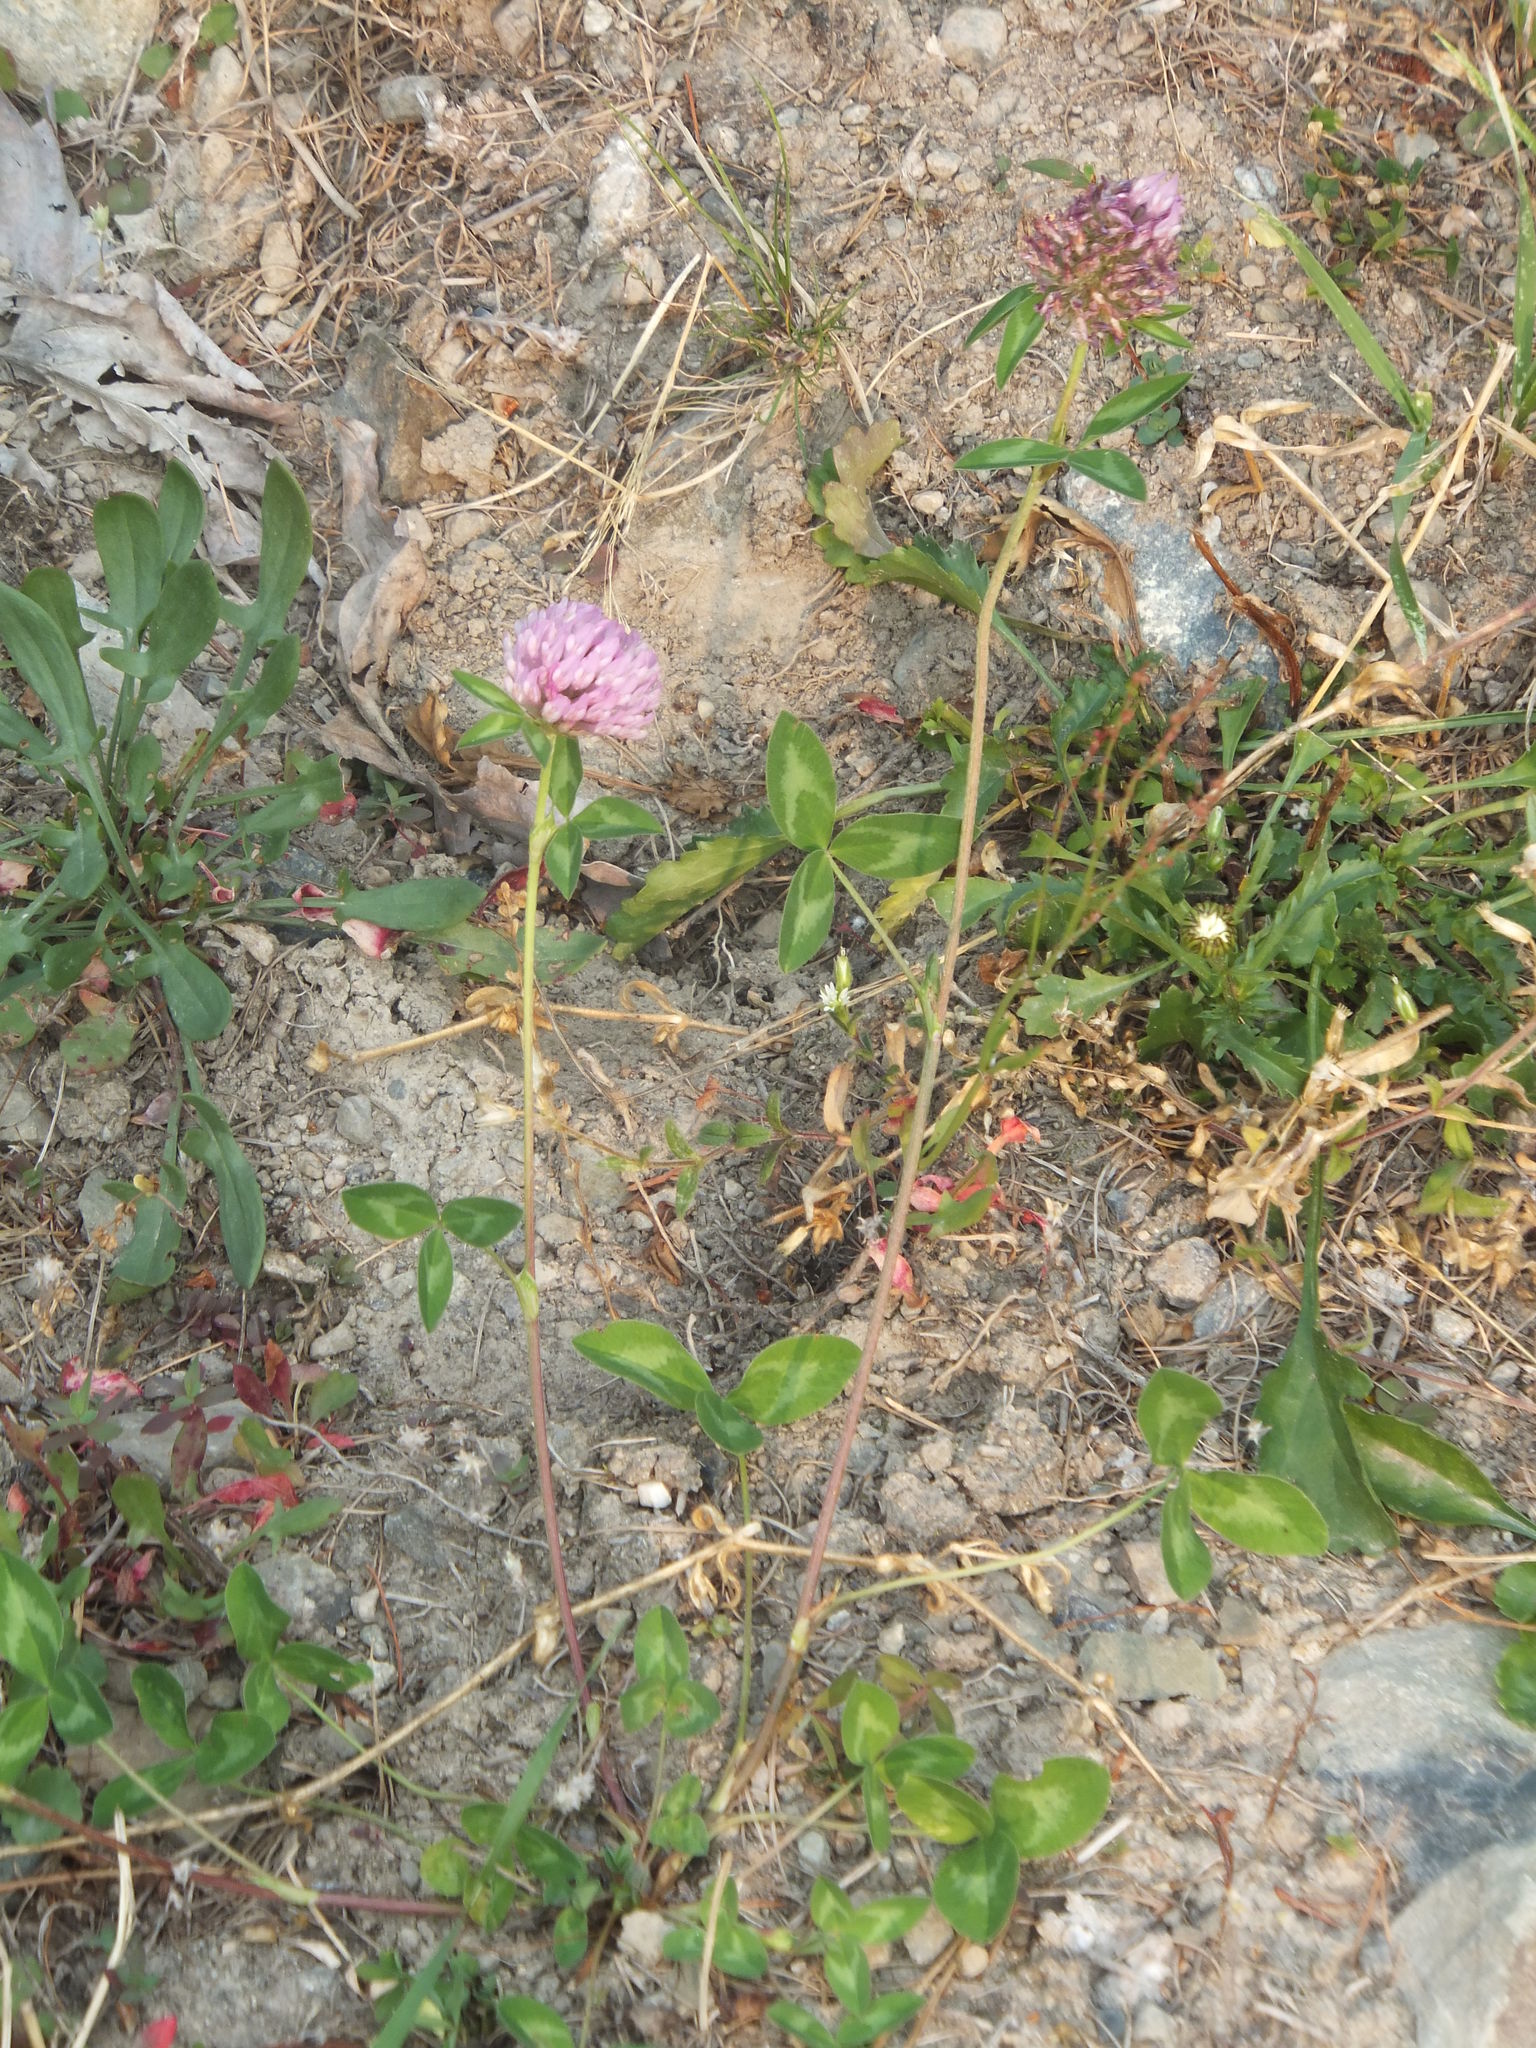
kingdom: Plantae
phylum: Tracheophyta
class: Magnoliopsida
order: Fabales
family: Fabaceae
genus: Trifolium
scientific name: Trifolium pratense
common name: Red clover
